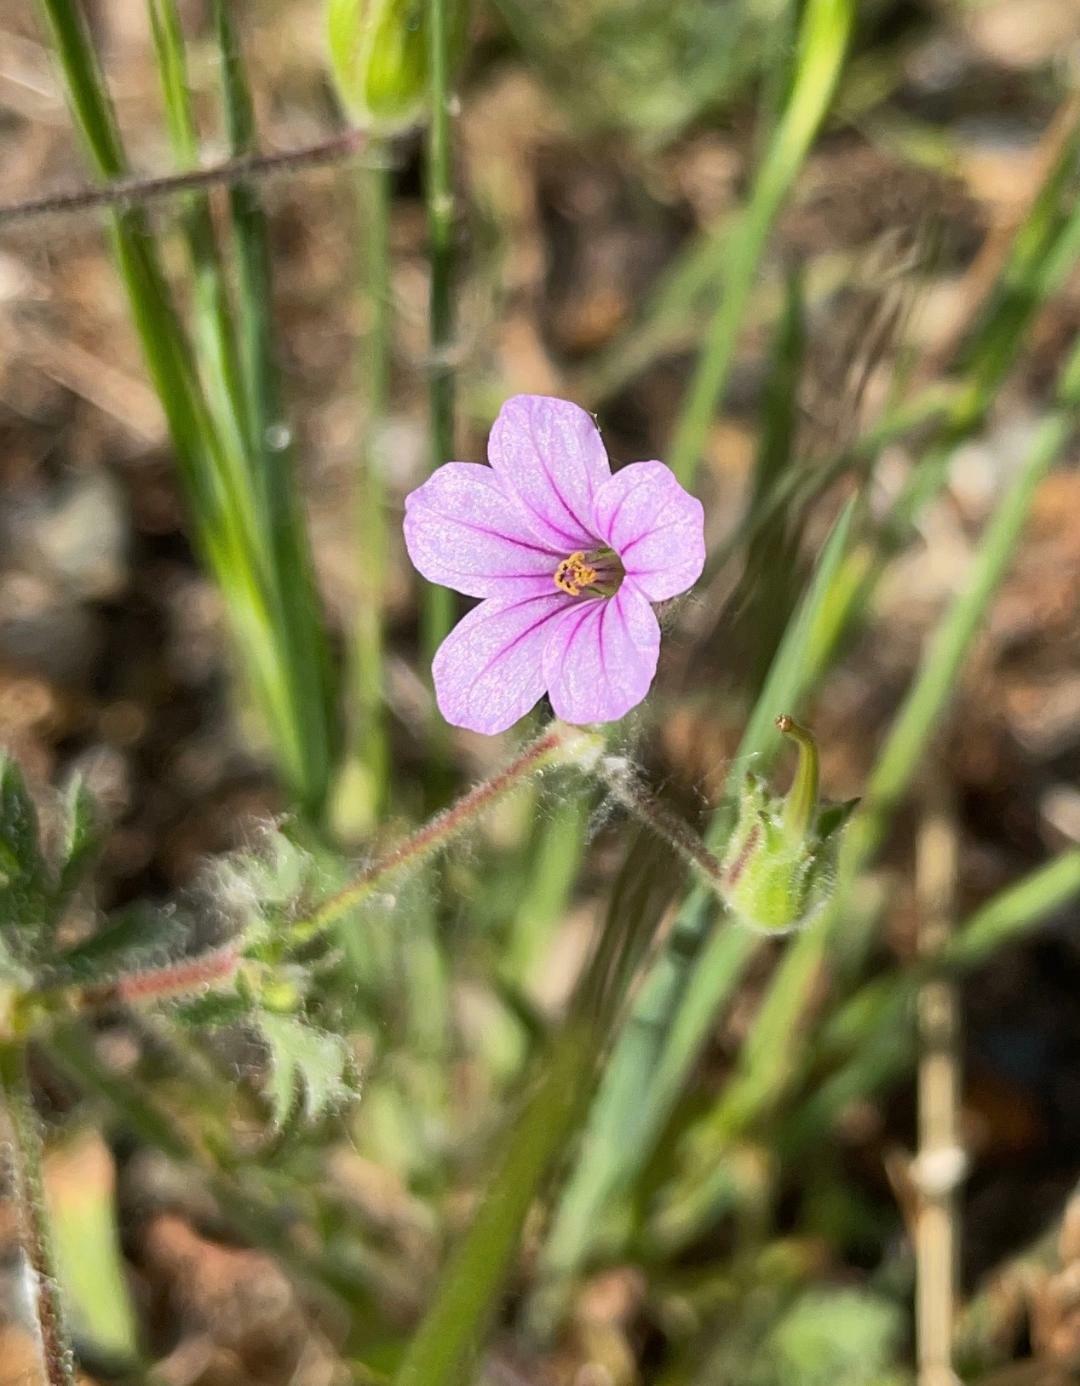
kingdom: Plantae
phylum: Tracheophyta
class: Magnoliopsida
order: Geraniales
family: Geraniaceae
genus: Erodium
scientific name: Erodium botrys
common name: Mediterranean stork's-bill
